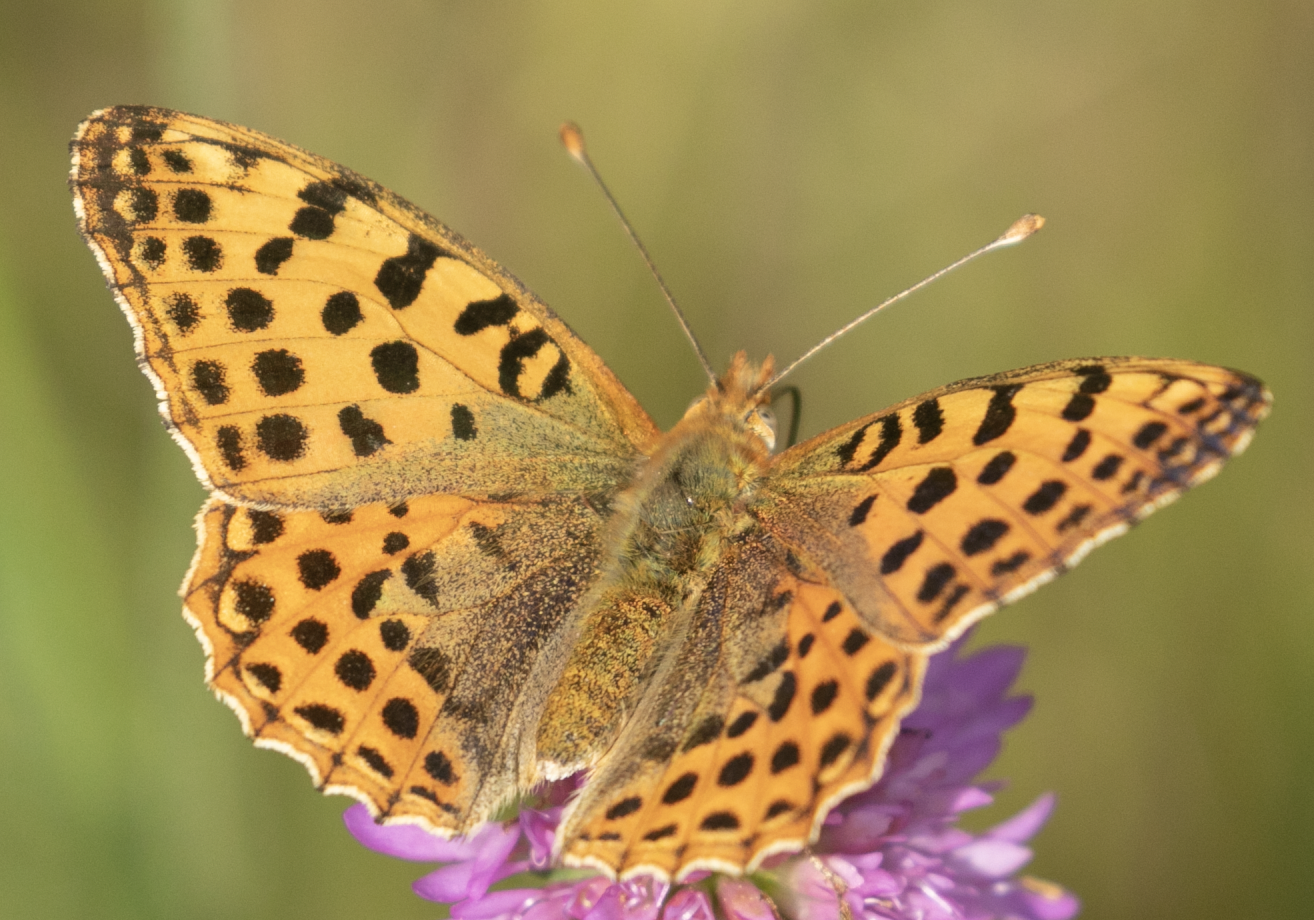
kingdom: Animalia
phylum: Arthropoda
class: Insecta
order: Lepidoptera
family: Nymphalidae
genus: Issoria
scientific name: Issoria lathonia
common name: Queen of spain fritillary
